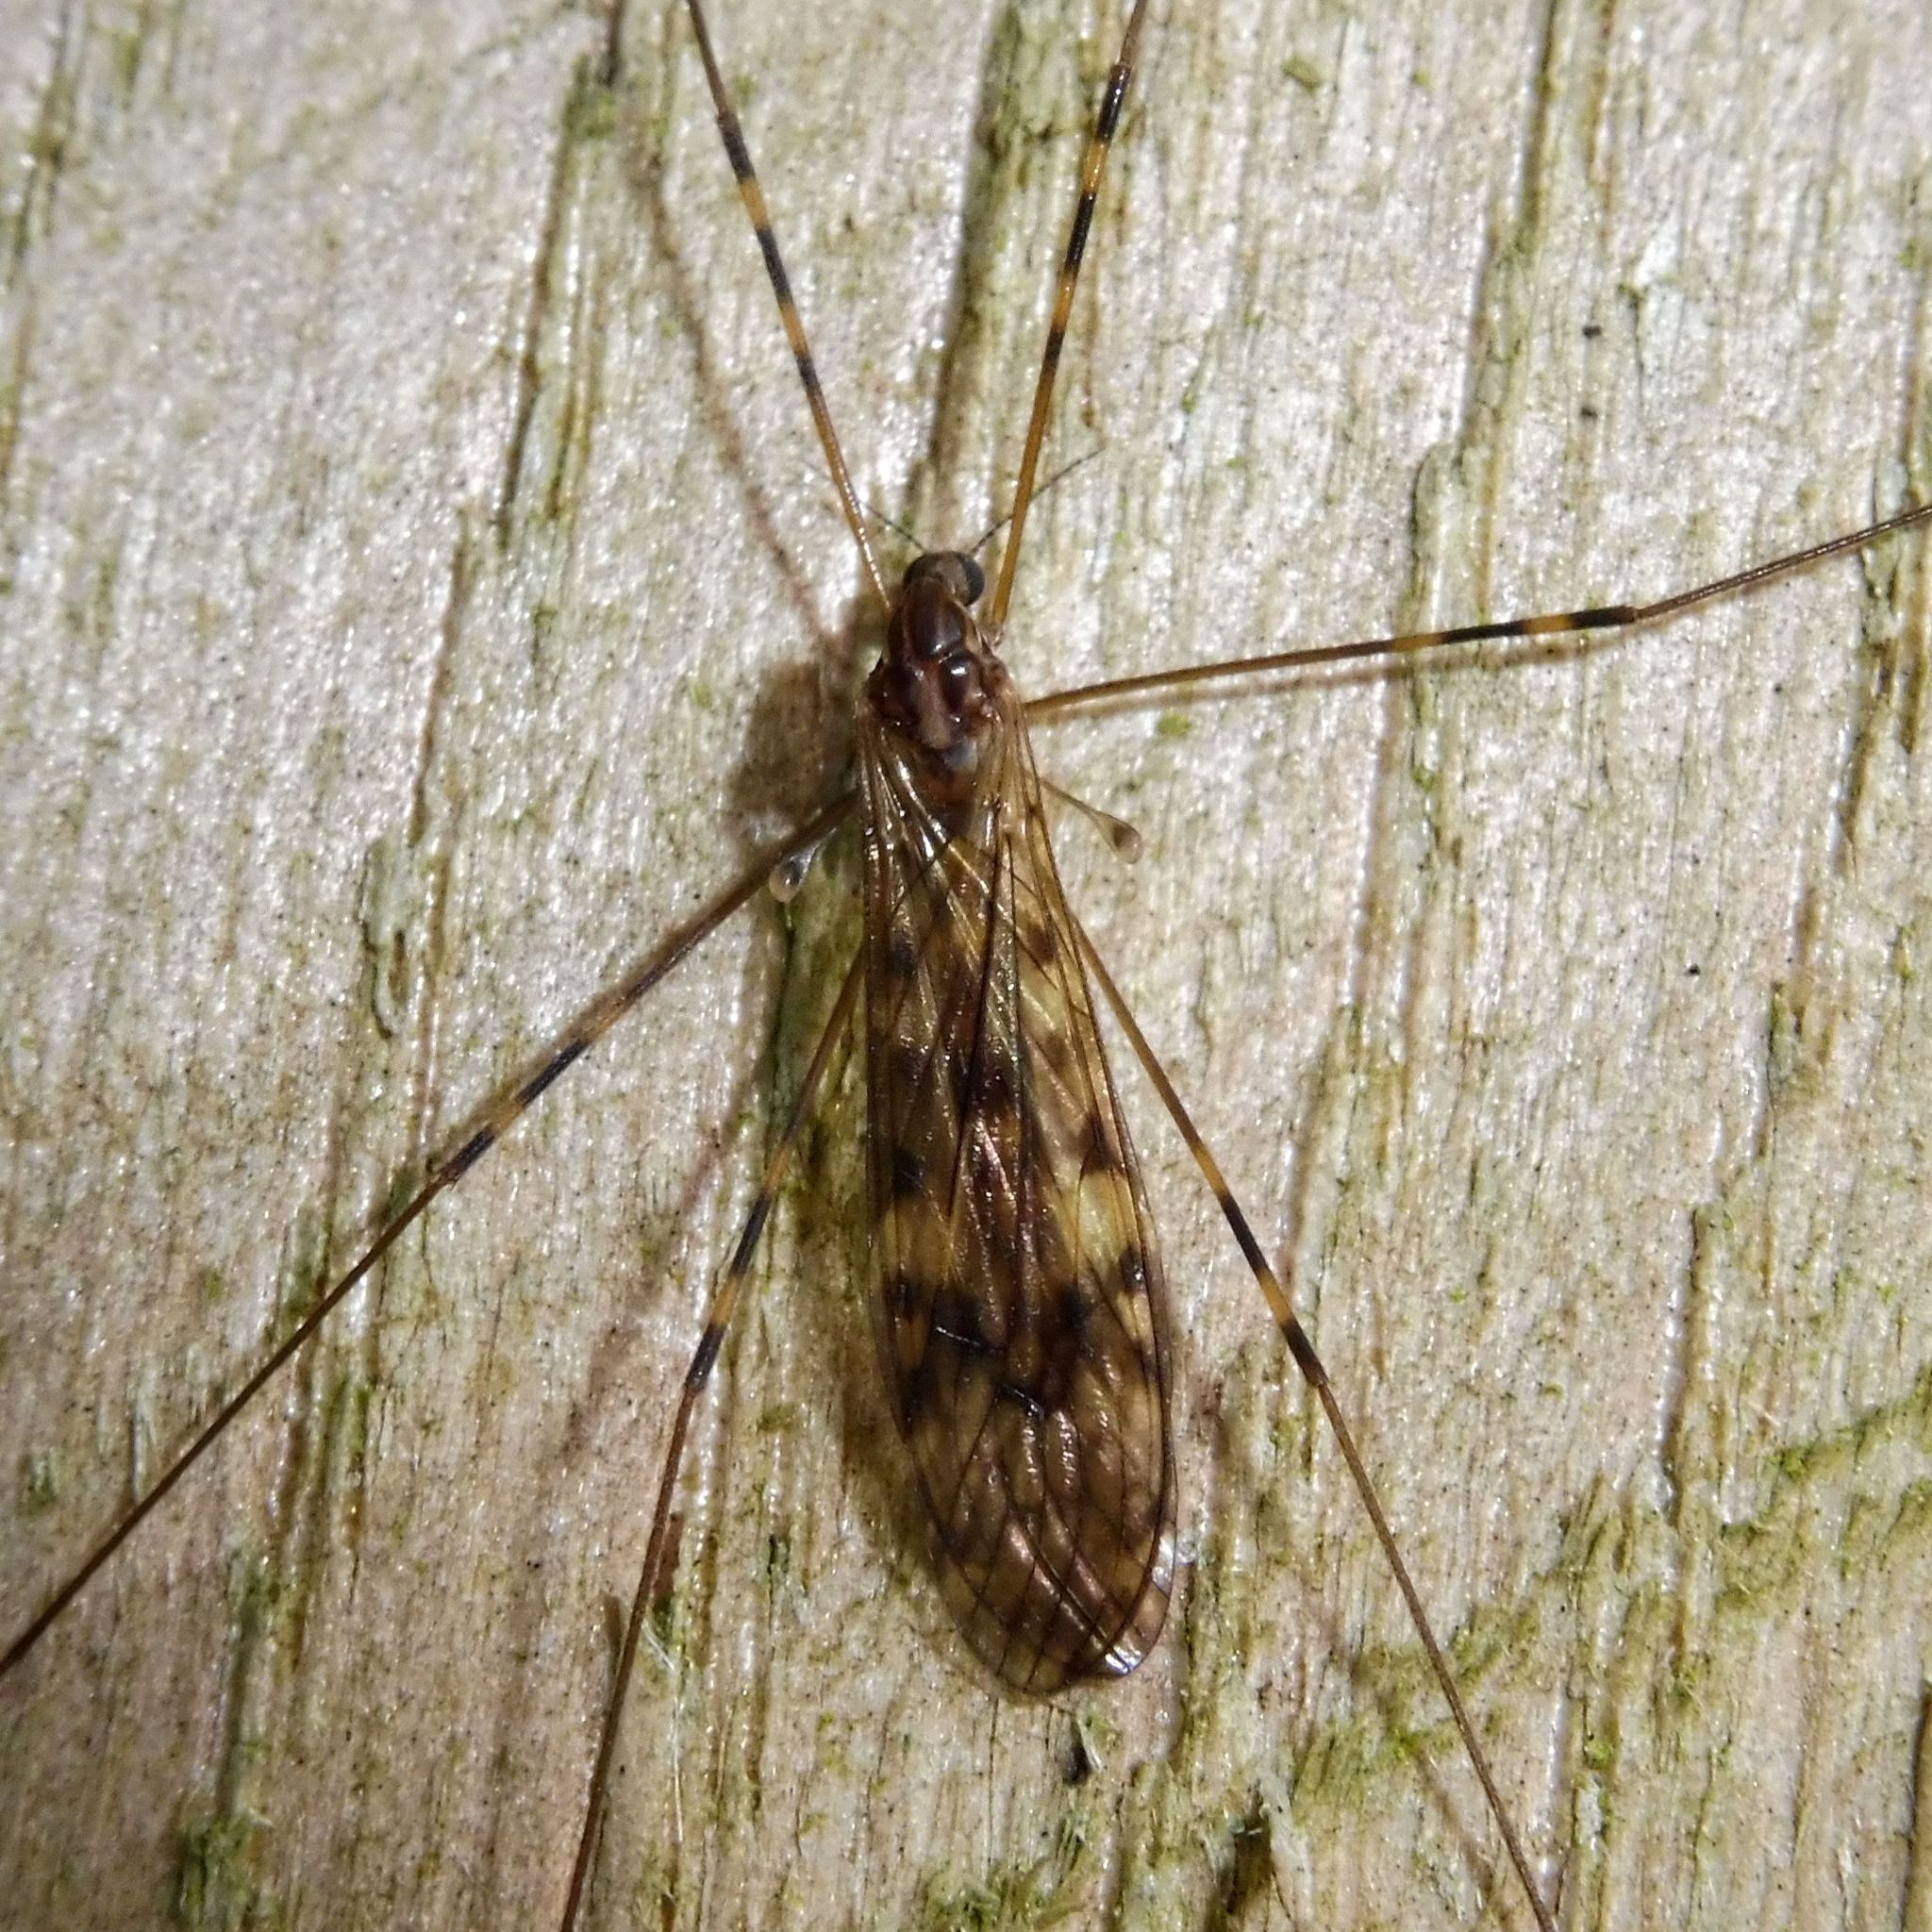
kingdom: Animalia
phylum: Arthropoda
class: Insecta
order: Diptera
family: Limoniidae
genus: Limonia
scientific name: Limonia nubeculosa
